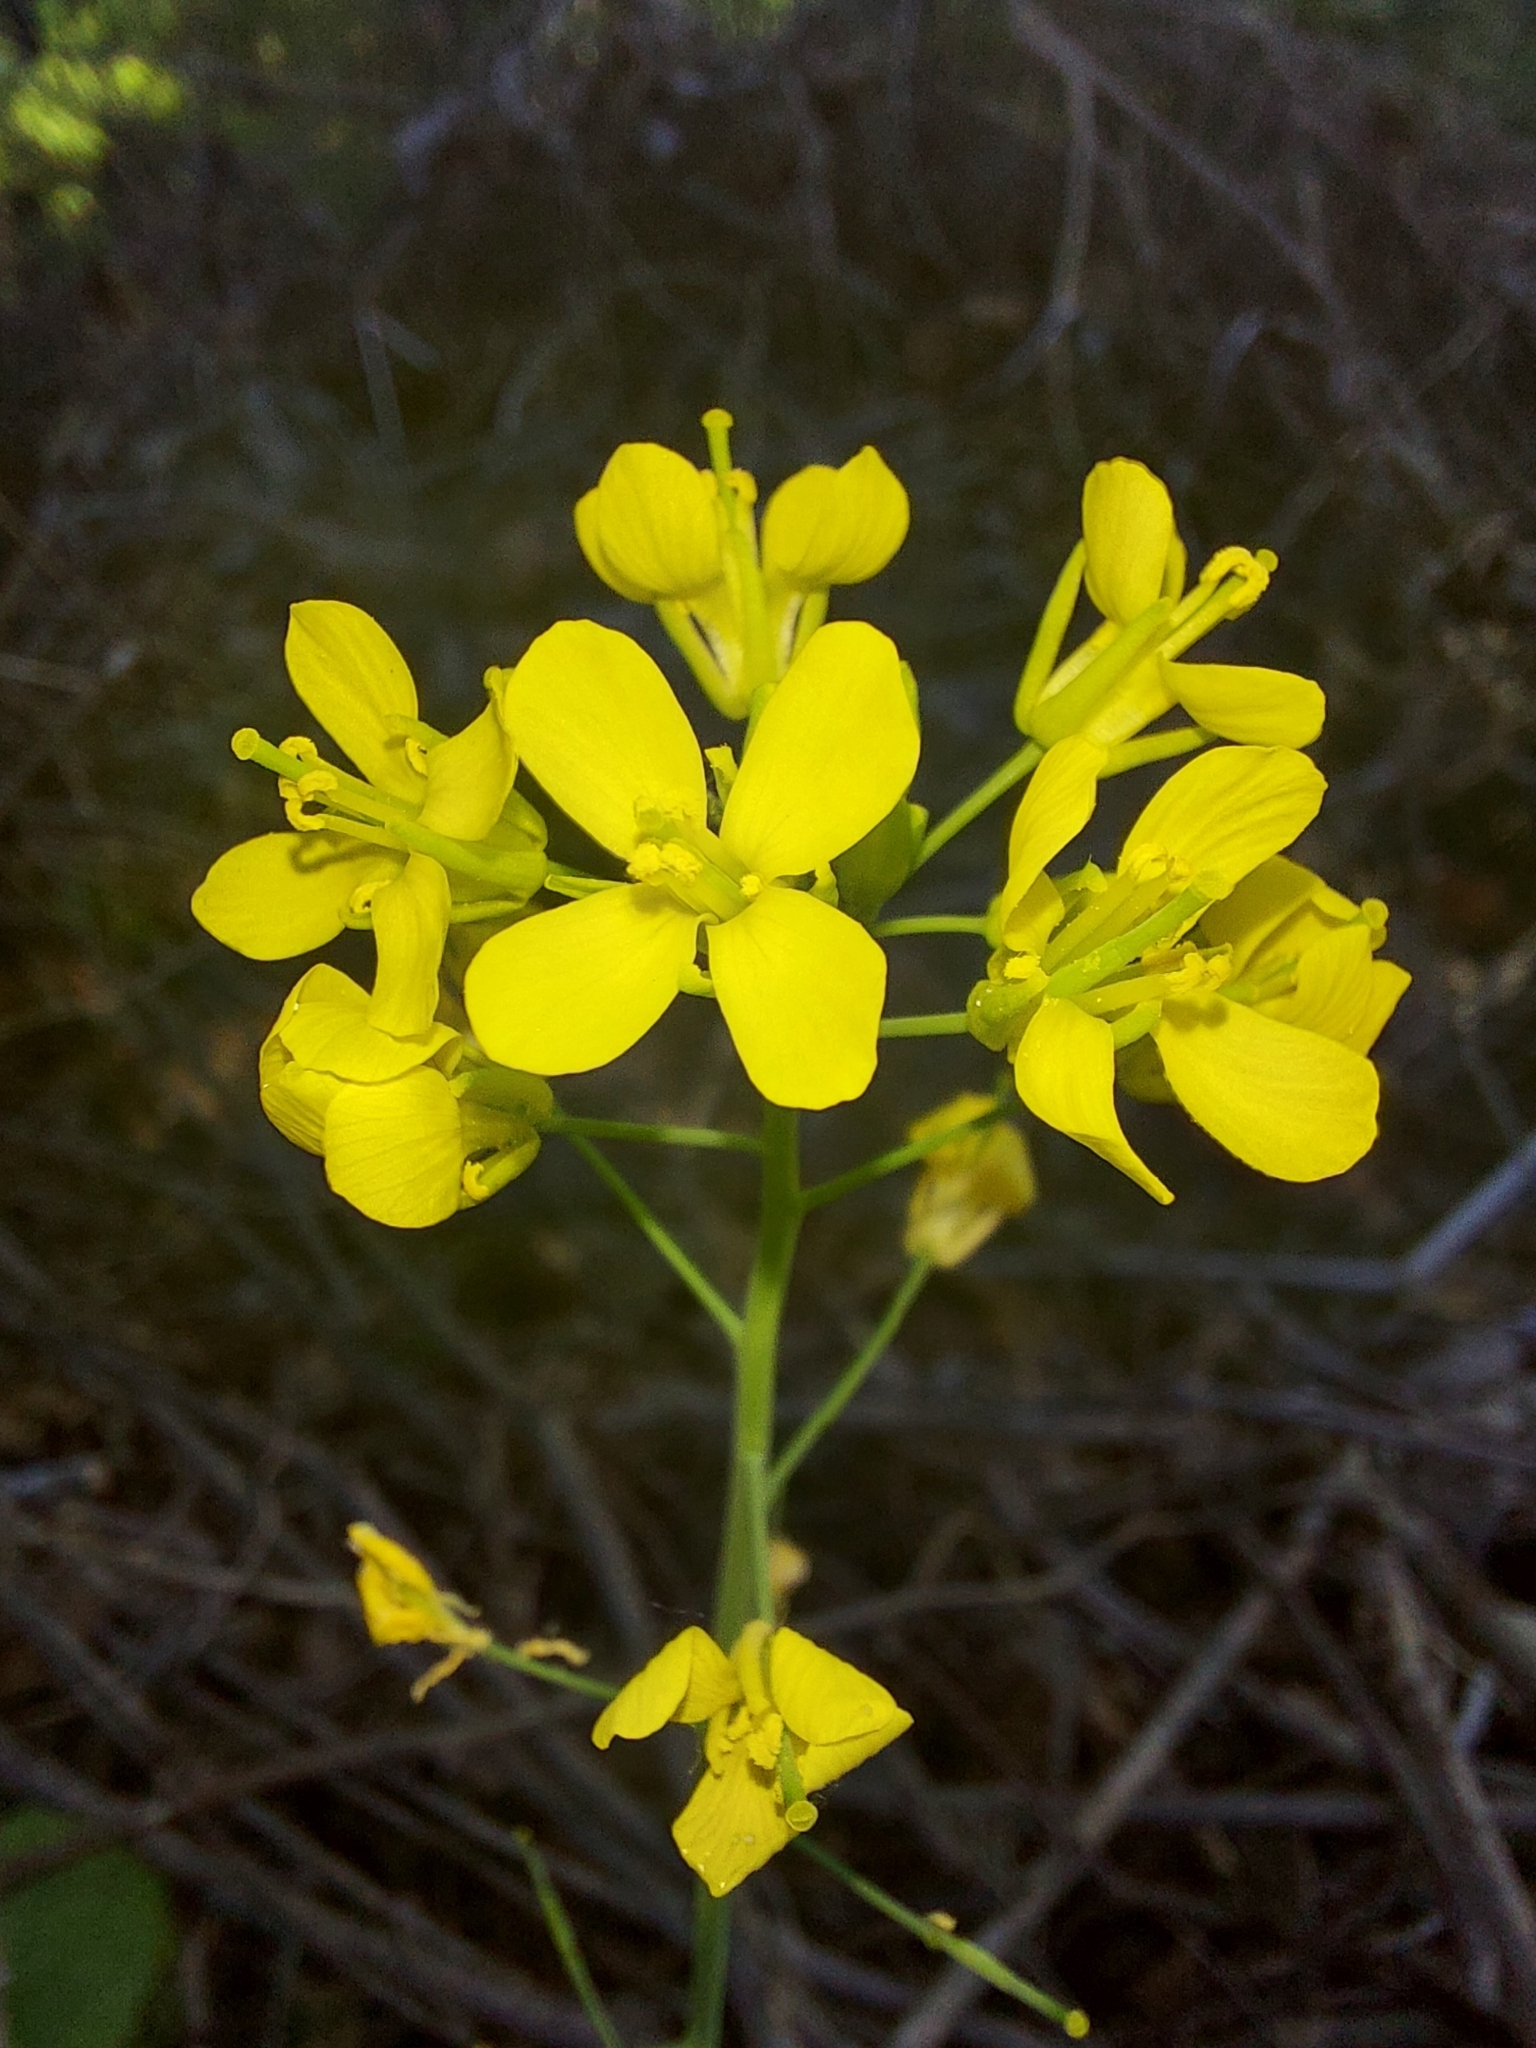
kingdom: Plantae
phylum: Tracheophyta
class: Magnoliopsida
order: Brassicales
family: Brassicaceae
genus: Brassica
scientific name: Brassica rapa
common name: Field mustard
